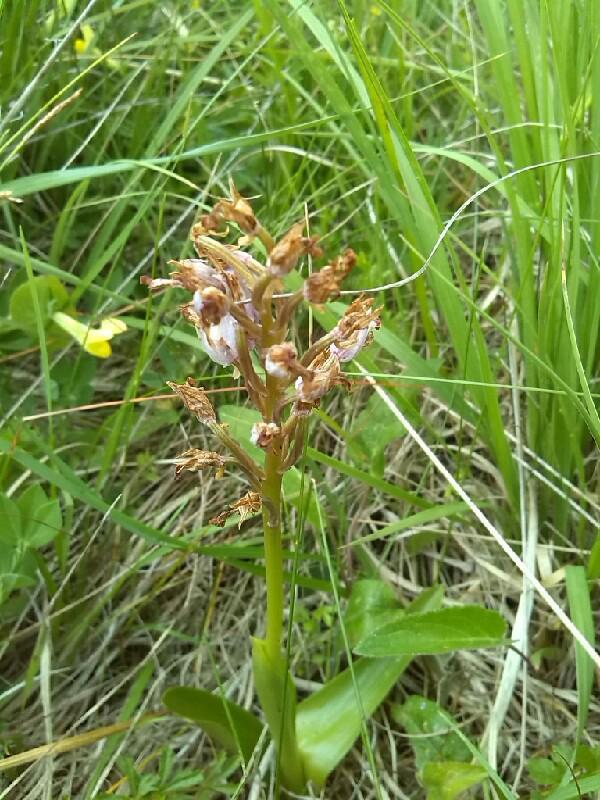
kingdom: Plantae
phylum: Tracheophyta
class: Liliopsida
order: Asparagales
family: Orchidaceae
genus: Orchis
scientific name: Orchis militaris
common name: Military orchid
